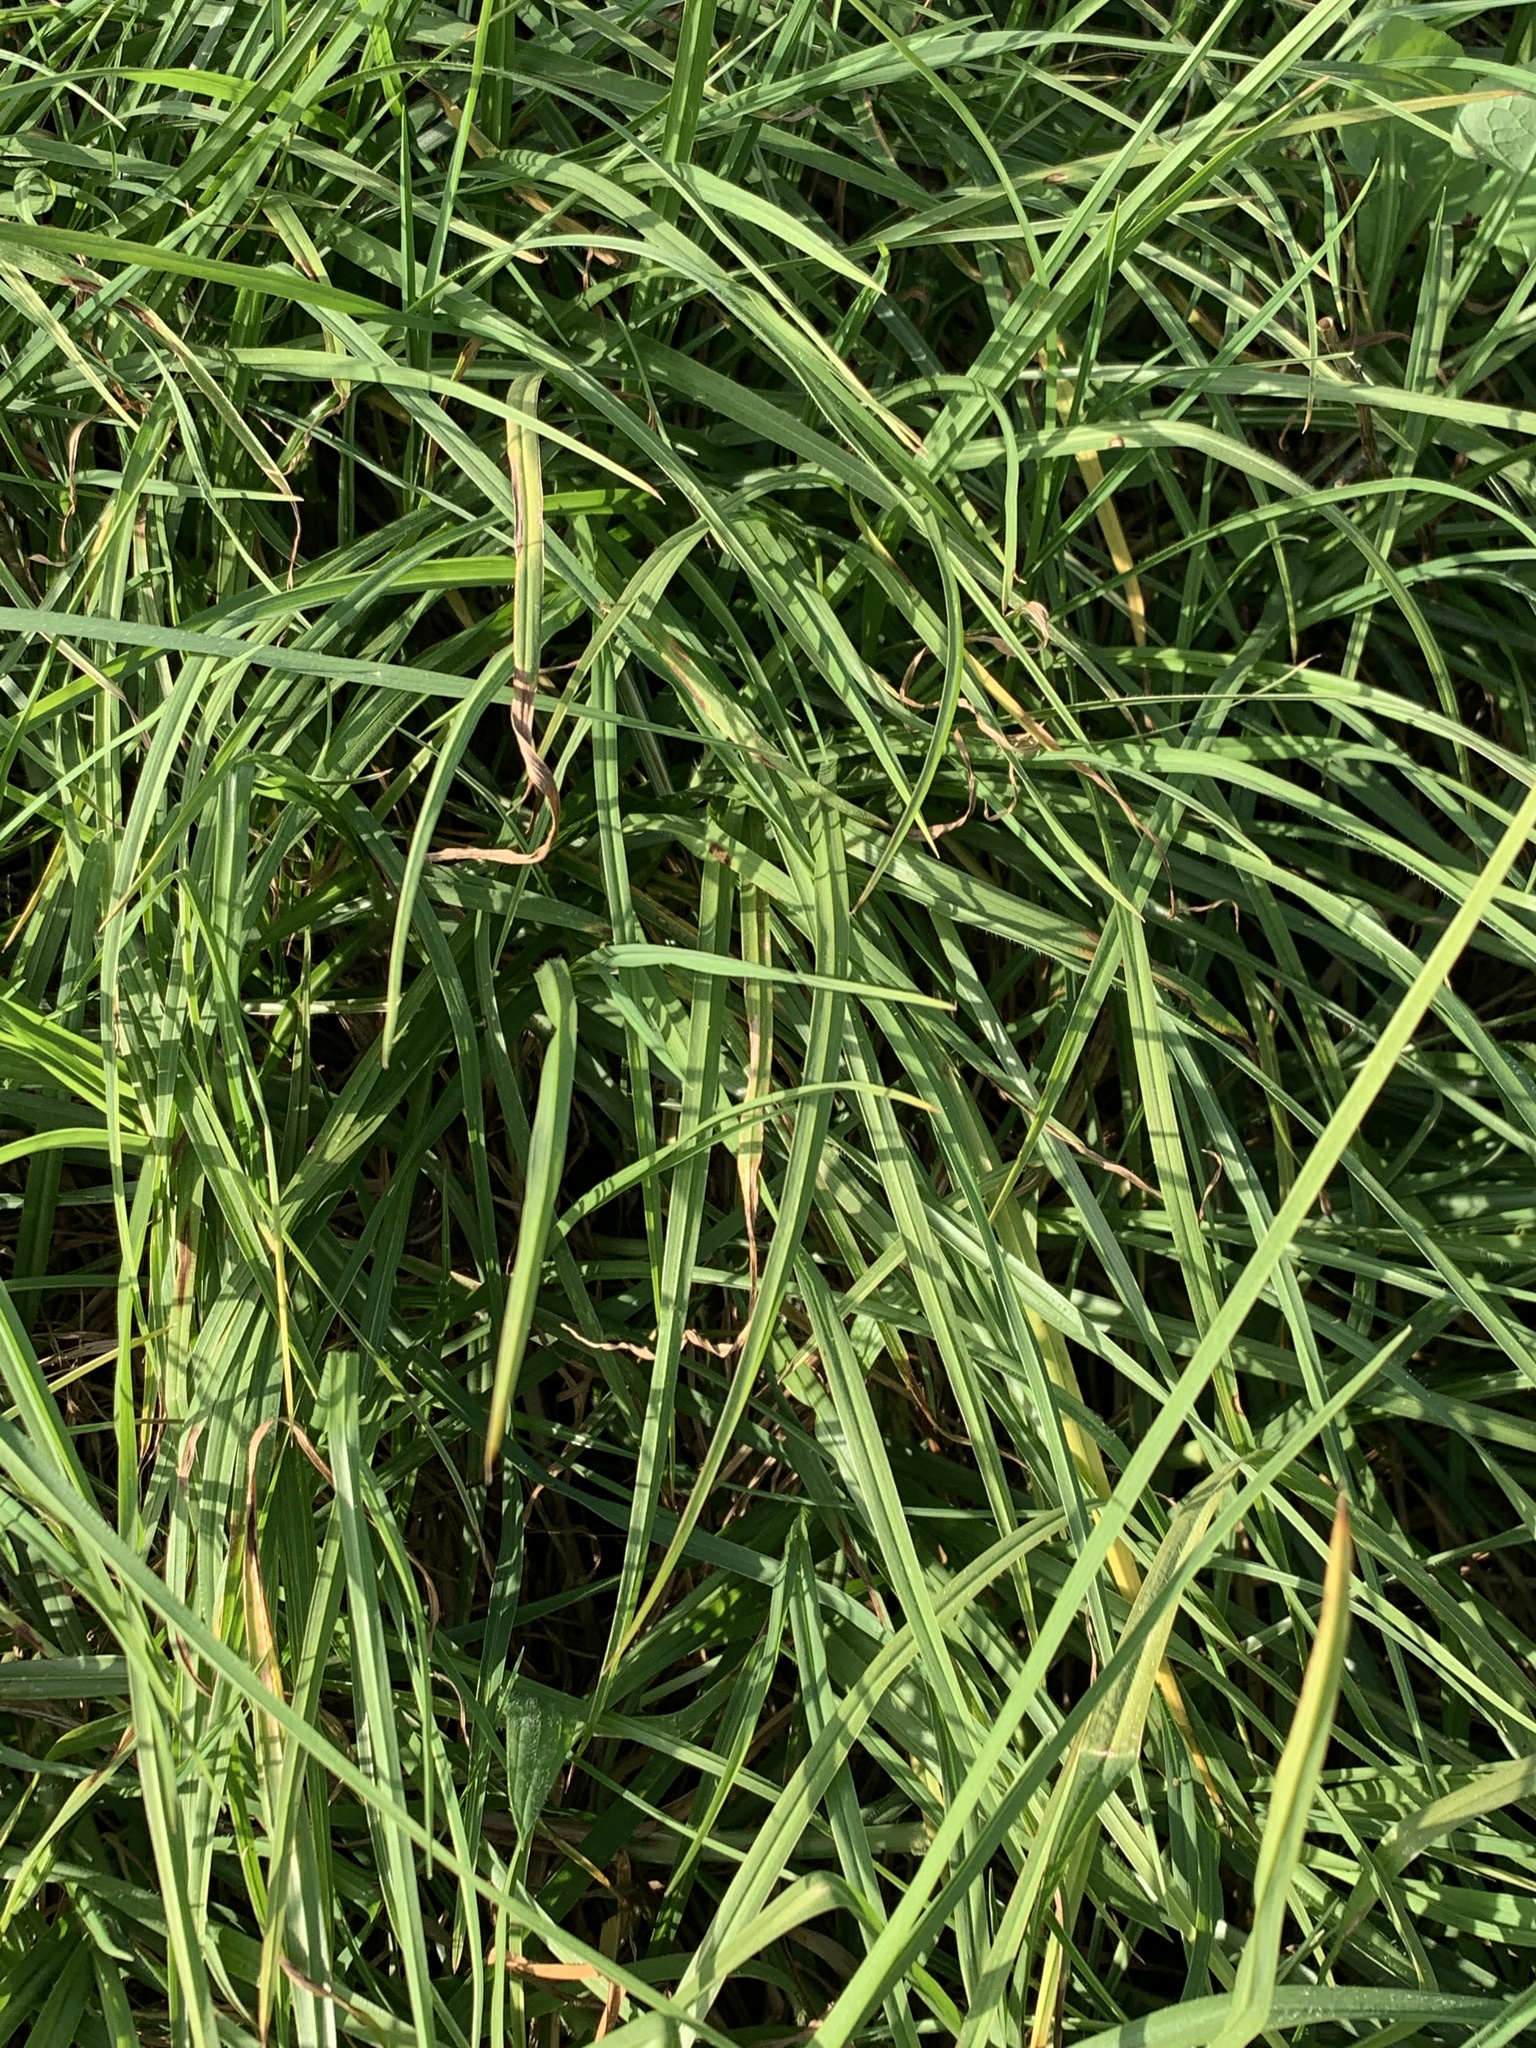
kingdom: Plantae
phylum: Tracheophyta
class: Liliopsida
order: Poales
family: Poaceae
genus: Cenchrus
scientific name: Cenchrus clandestinus
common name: Kikuyugrass
